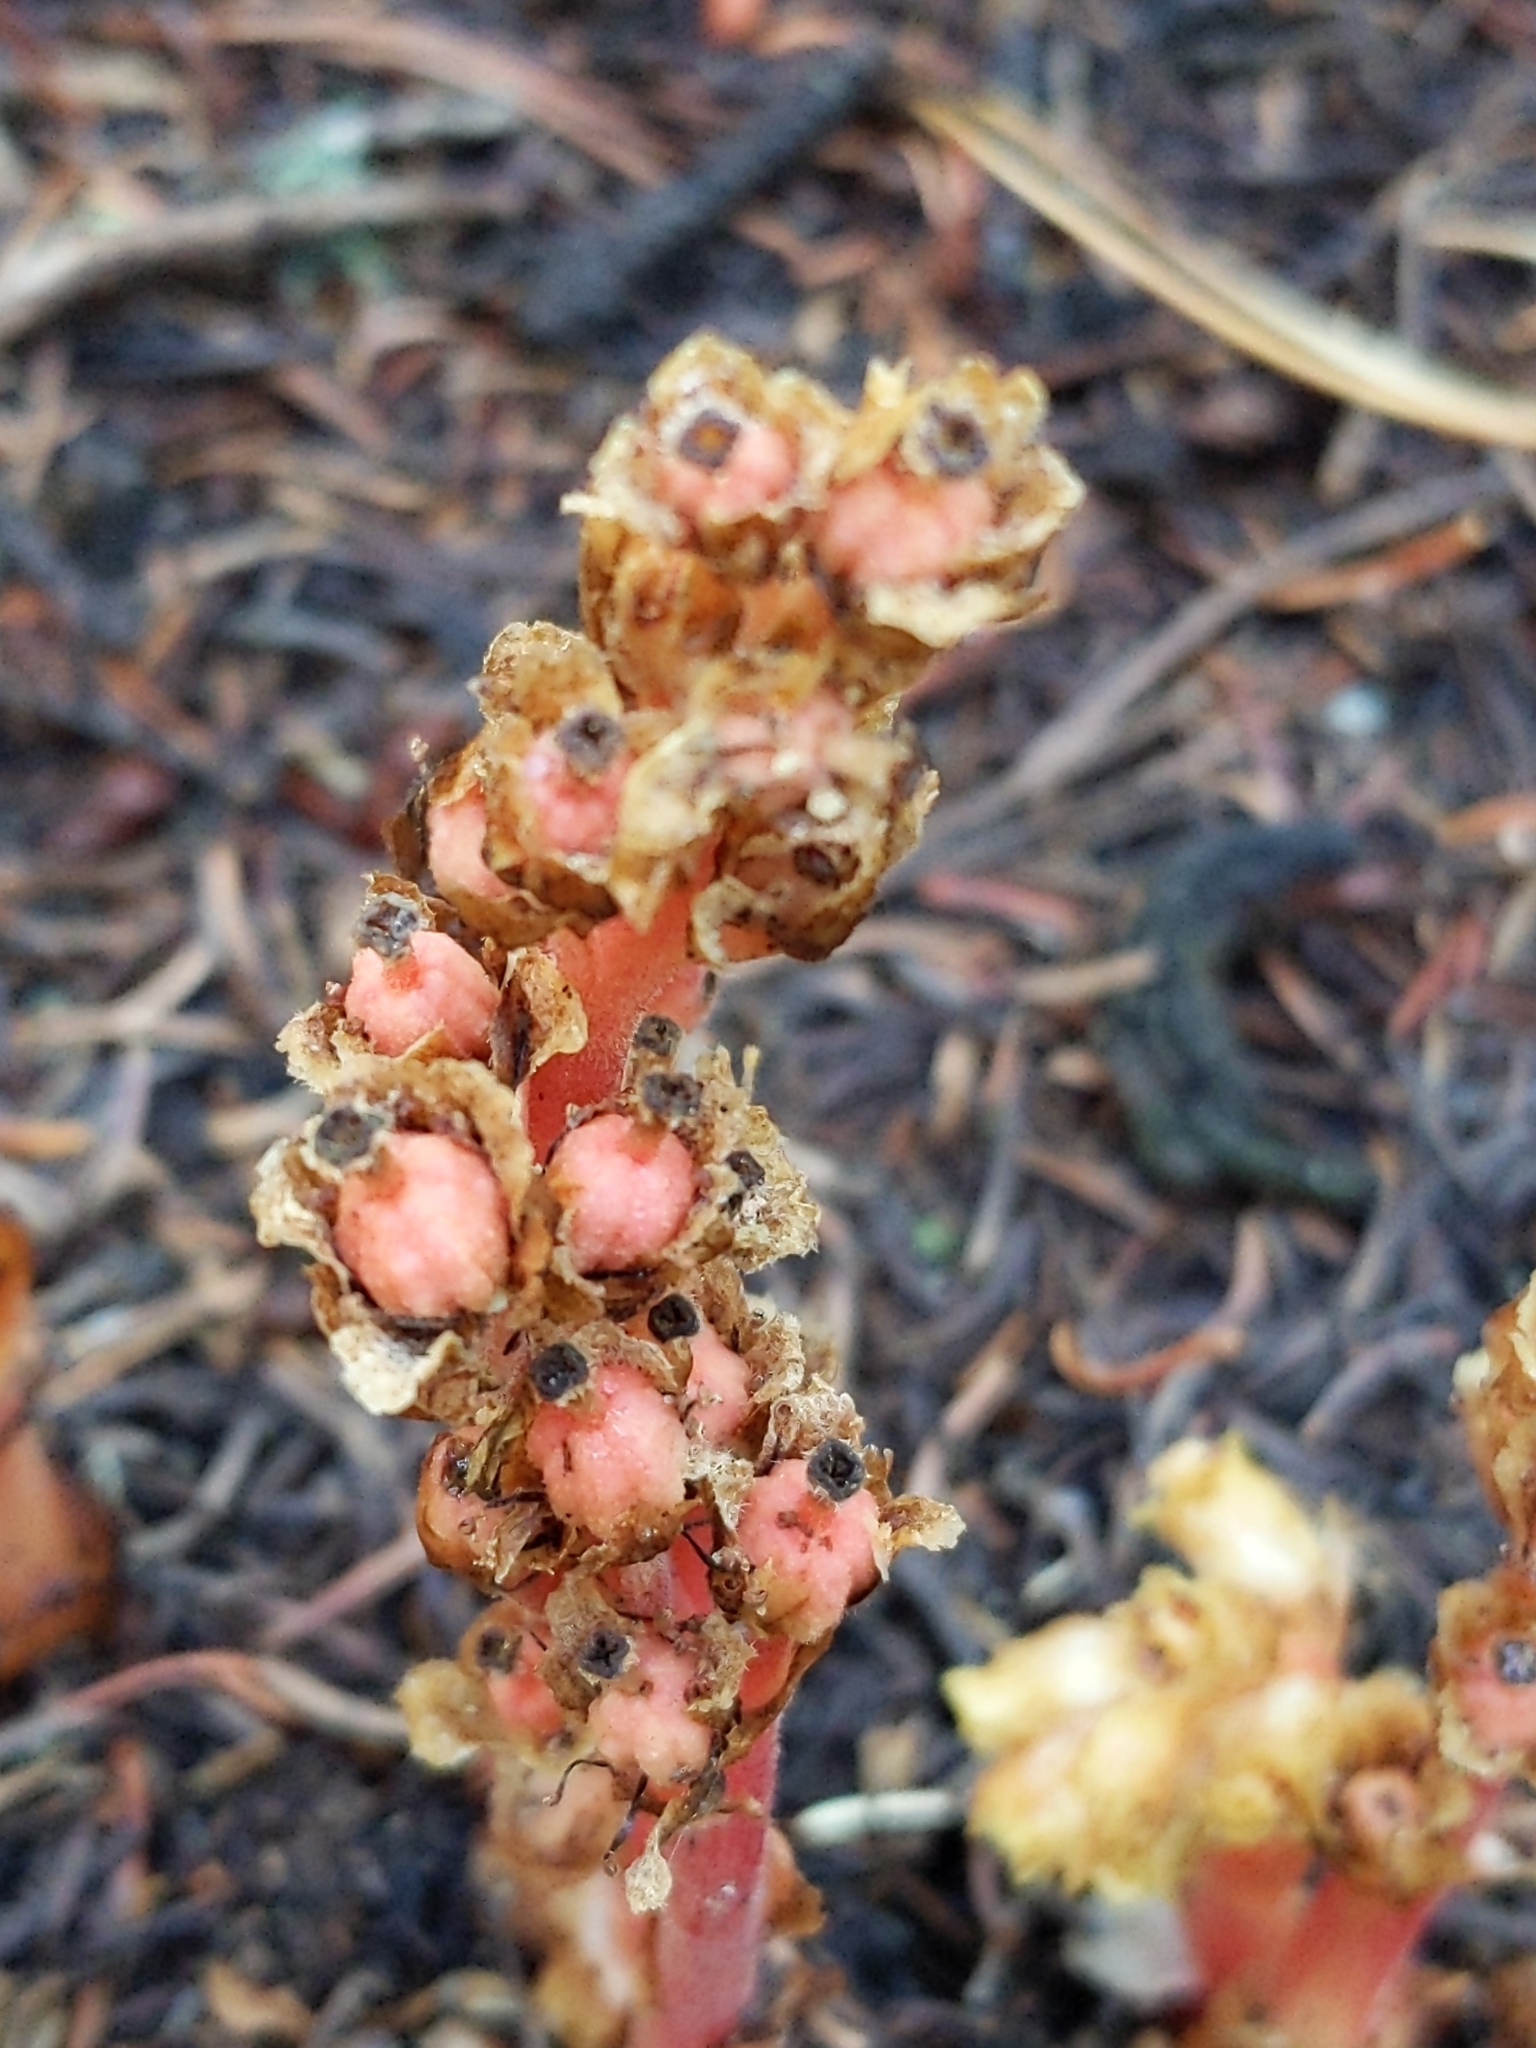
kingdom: Plantae
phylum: Tracheophyta
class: Magnoliopsida
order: Ericales
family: Ericaceae
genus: Hypopitys
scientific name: Hypopitys monotropa
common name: Yellow bird's-nest
